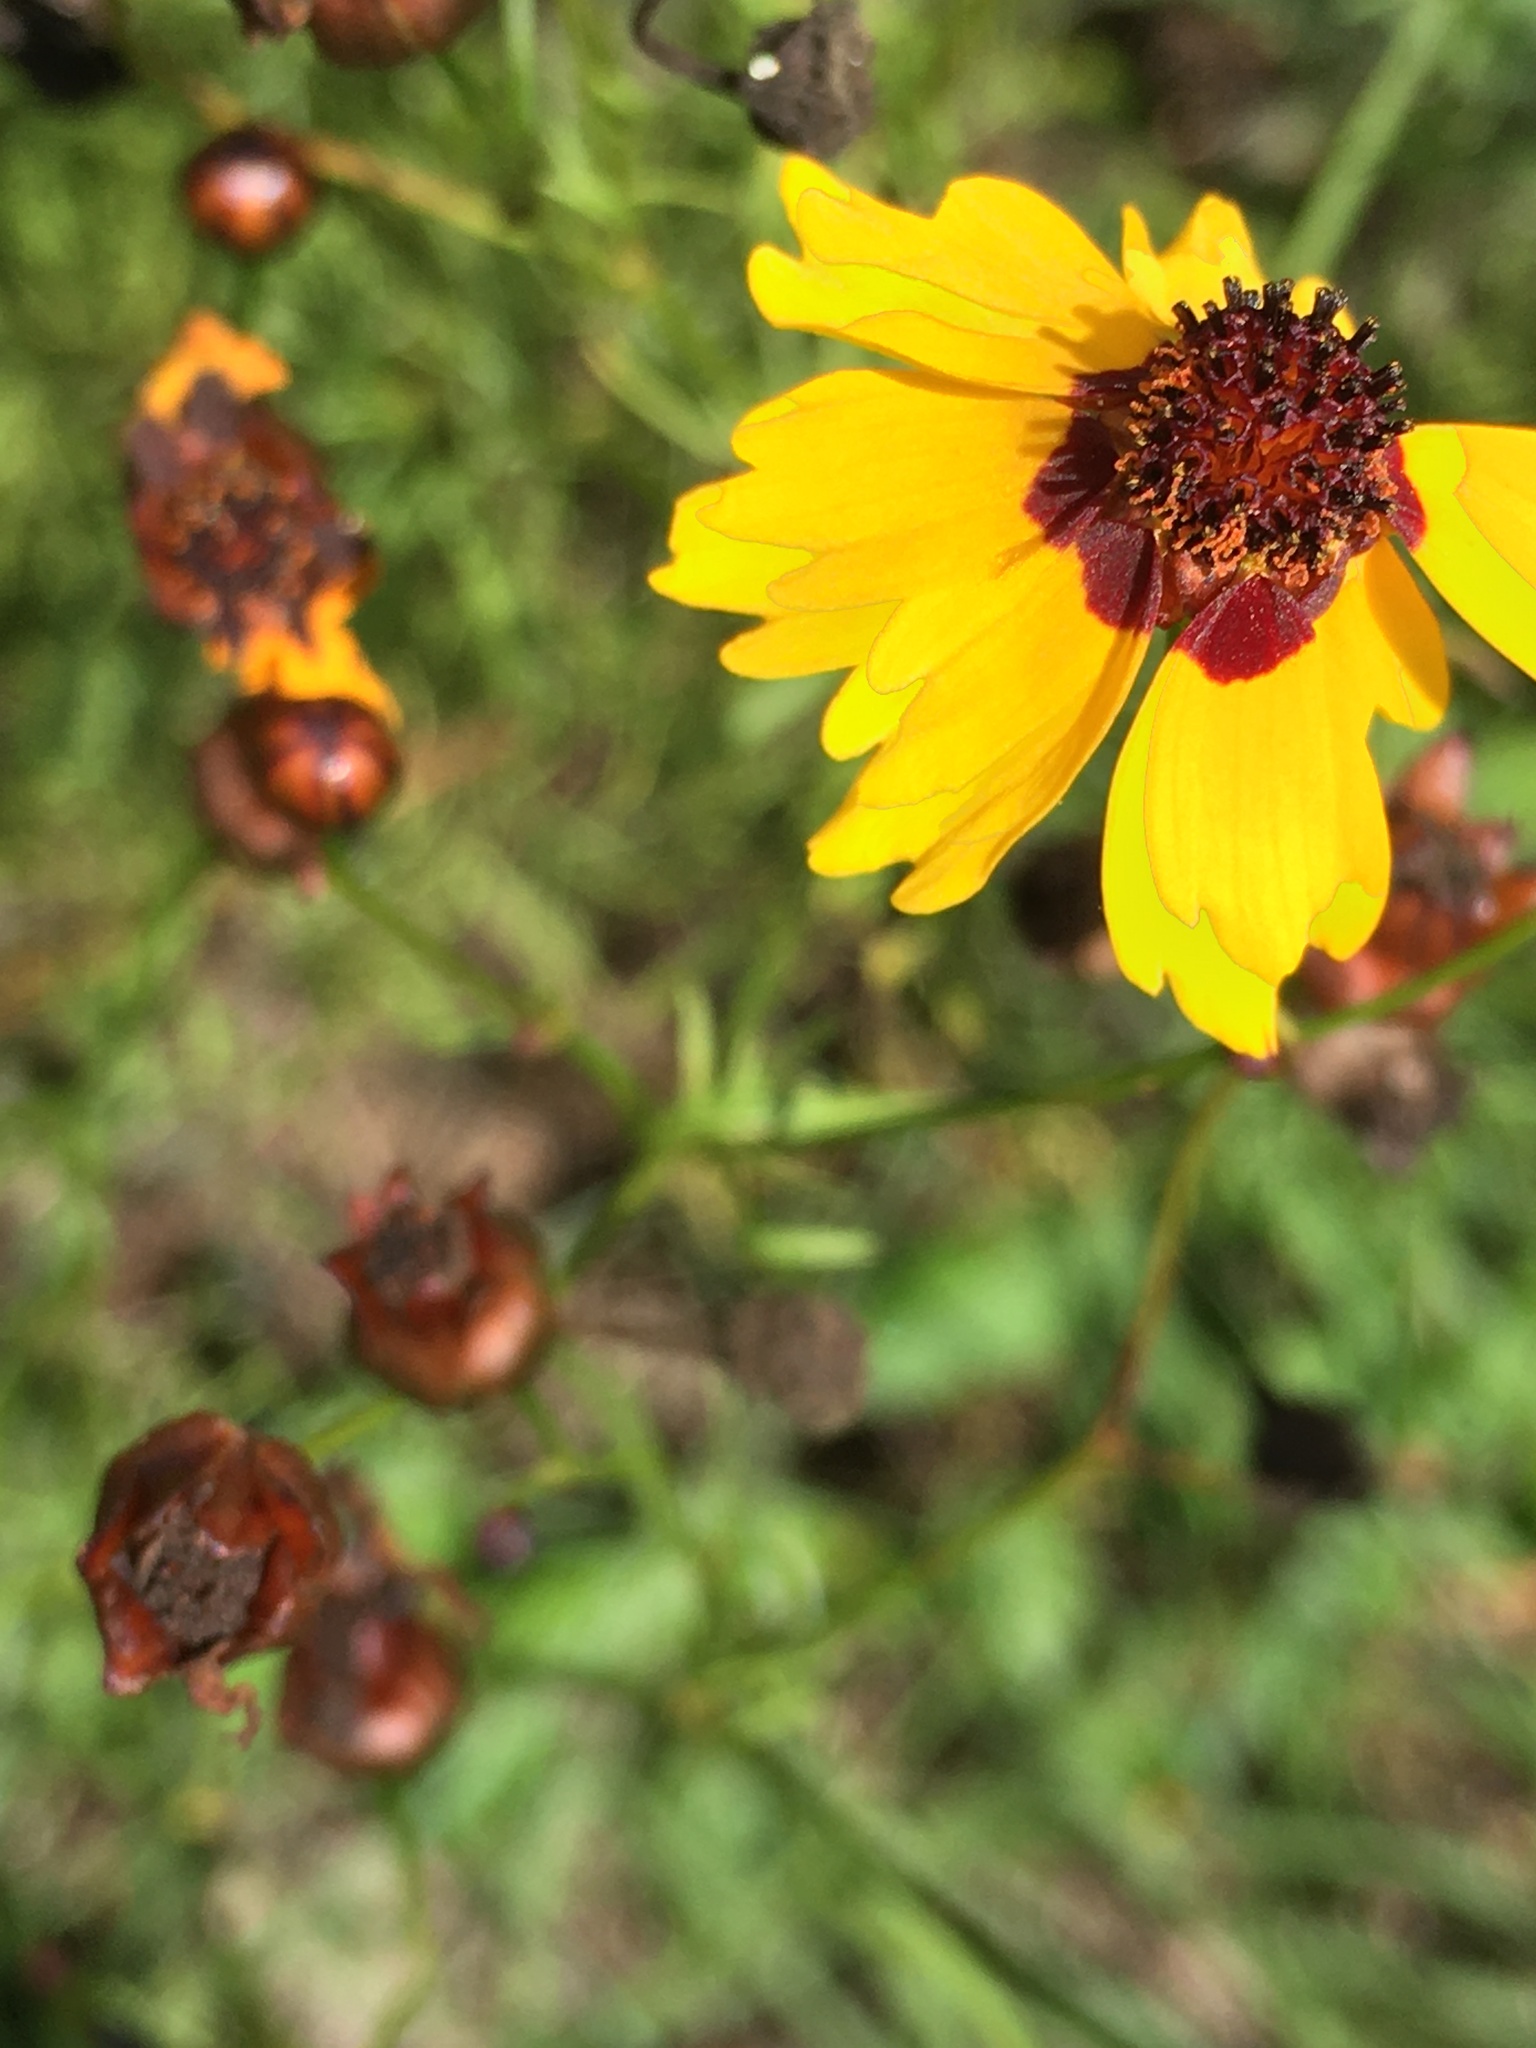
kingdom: Plantae
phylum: Tracheophyta
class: Magnoliopsida
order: Asterales
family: Asteraceae
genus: Coreopsis
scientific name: Coreopsis tinctoria
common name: Garden tickseed
